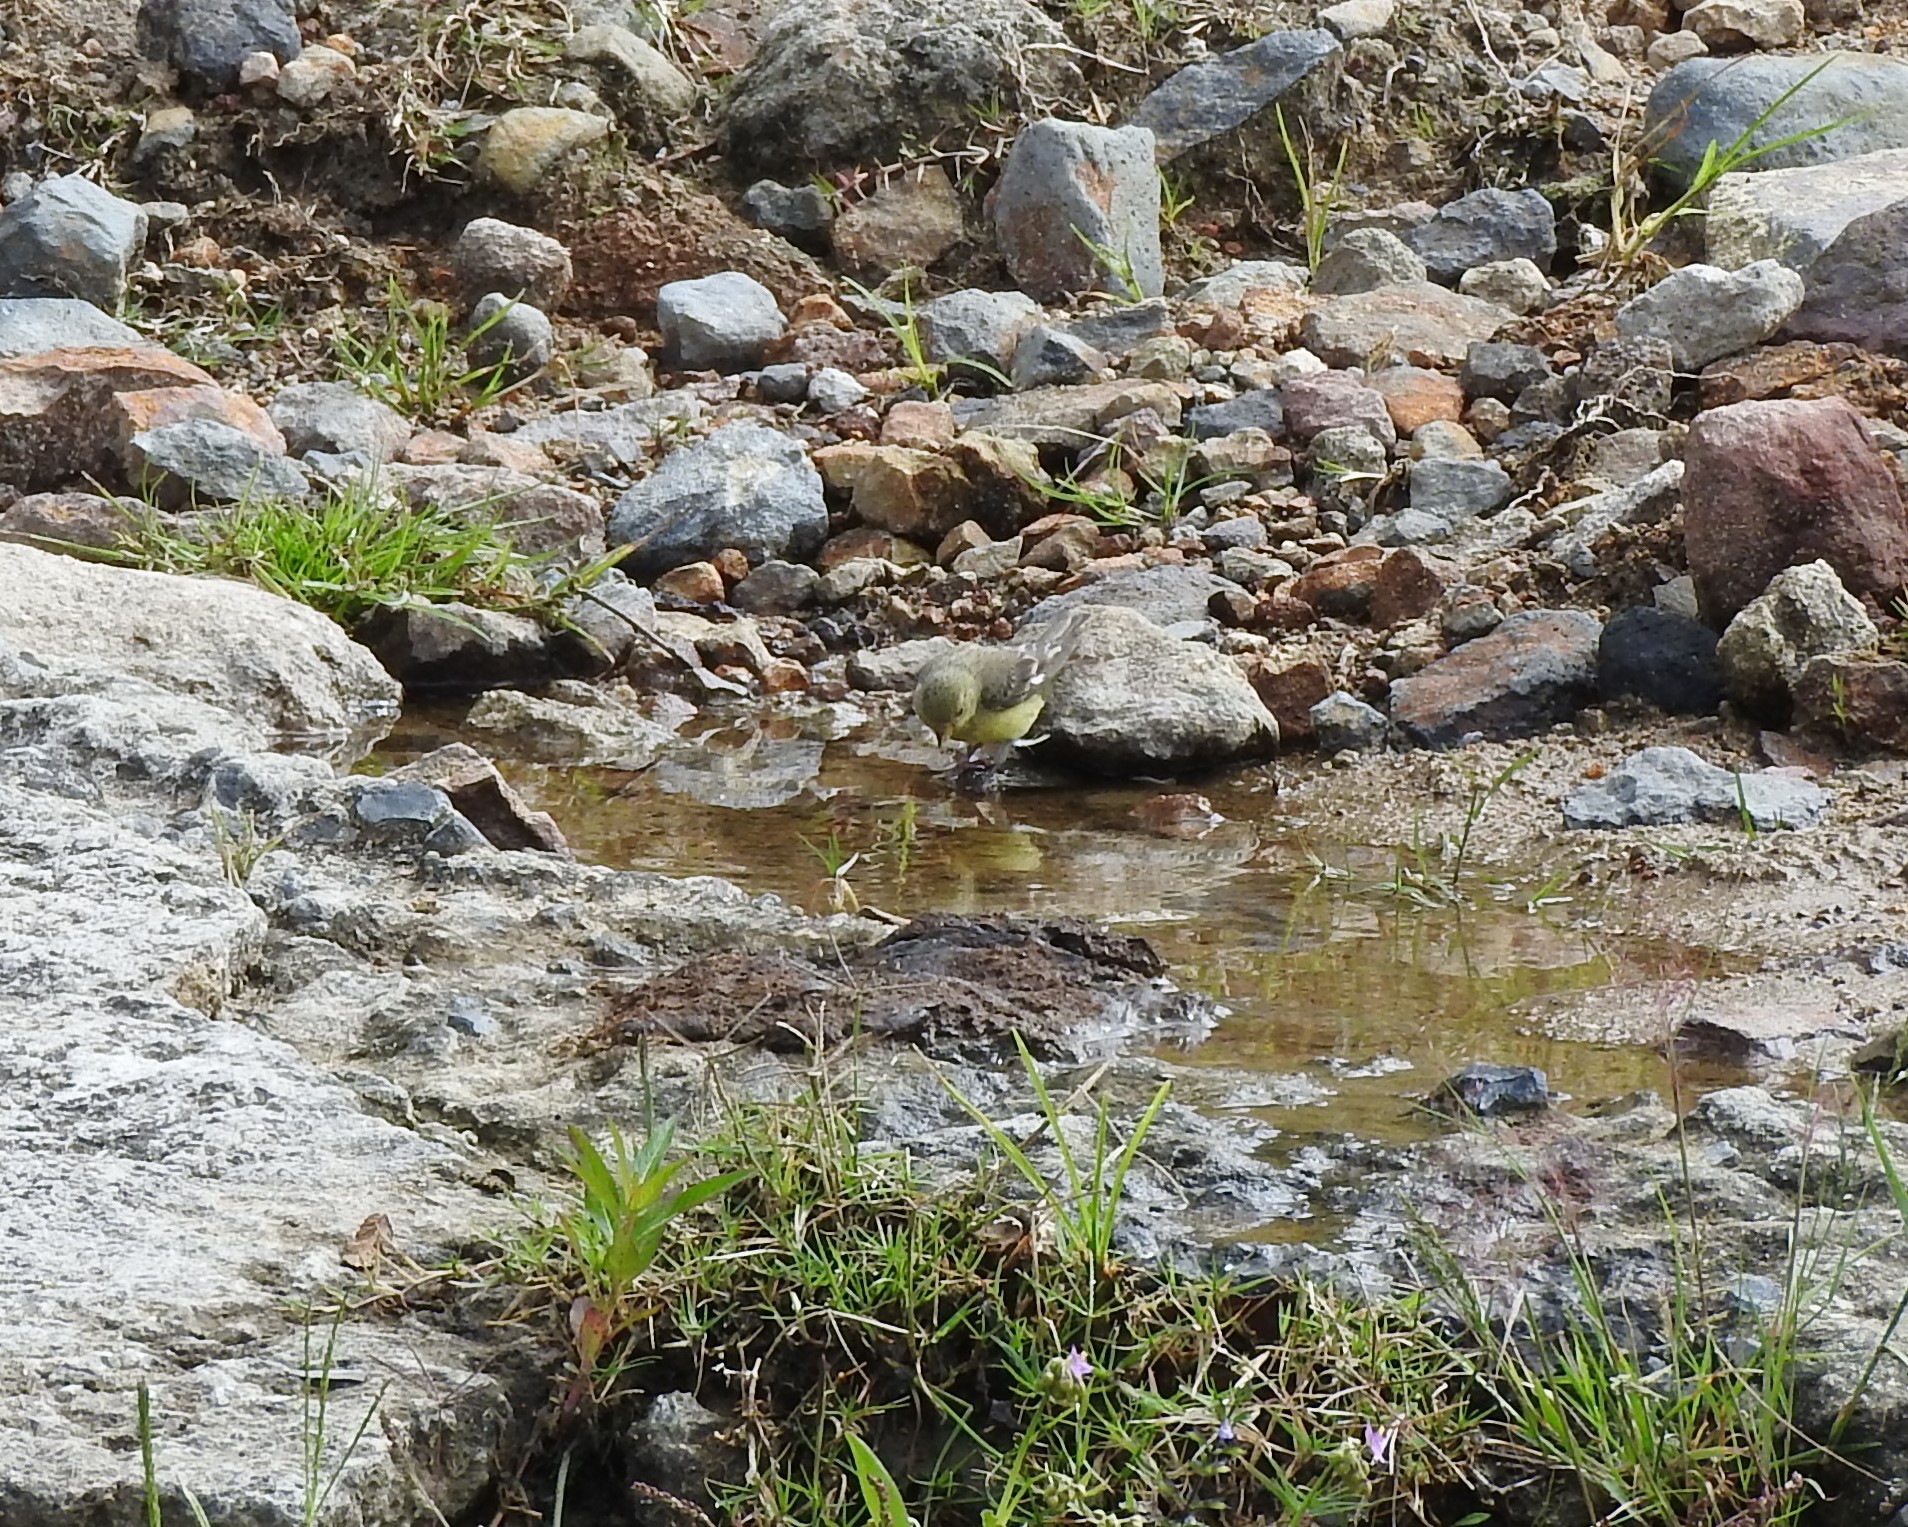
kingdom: Animalia
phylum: Chordata
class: Aves
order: Passeriformes
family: Fringillidae
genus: Spinus
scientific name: Spinus psaltria
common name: Lesser goldfinch
